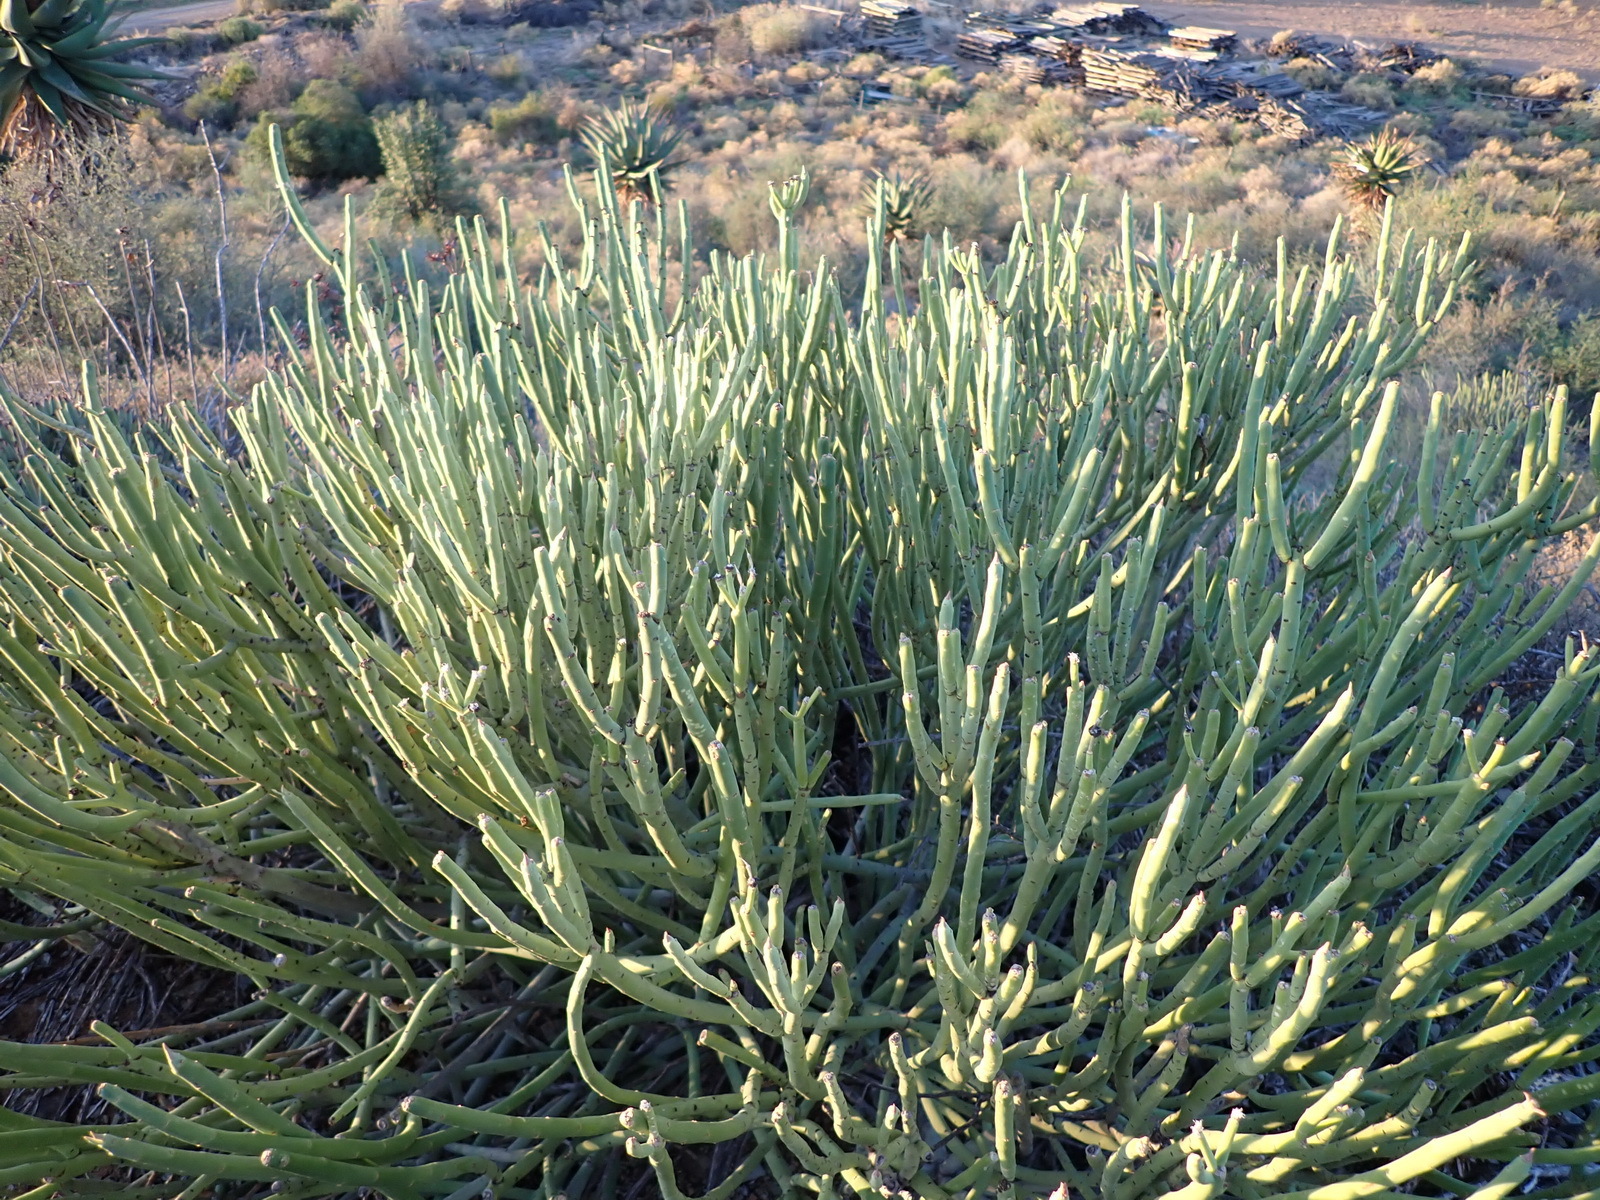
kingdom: Plantae
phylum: Tracheophyta
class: Magnoliopsida
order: Malpighiales
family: Euphorbiaceae
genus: Euphorbia
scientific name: Euphorbia mauritanica
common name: Jackal's-food
